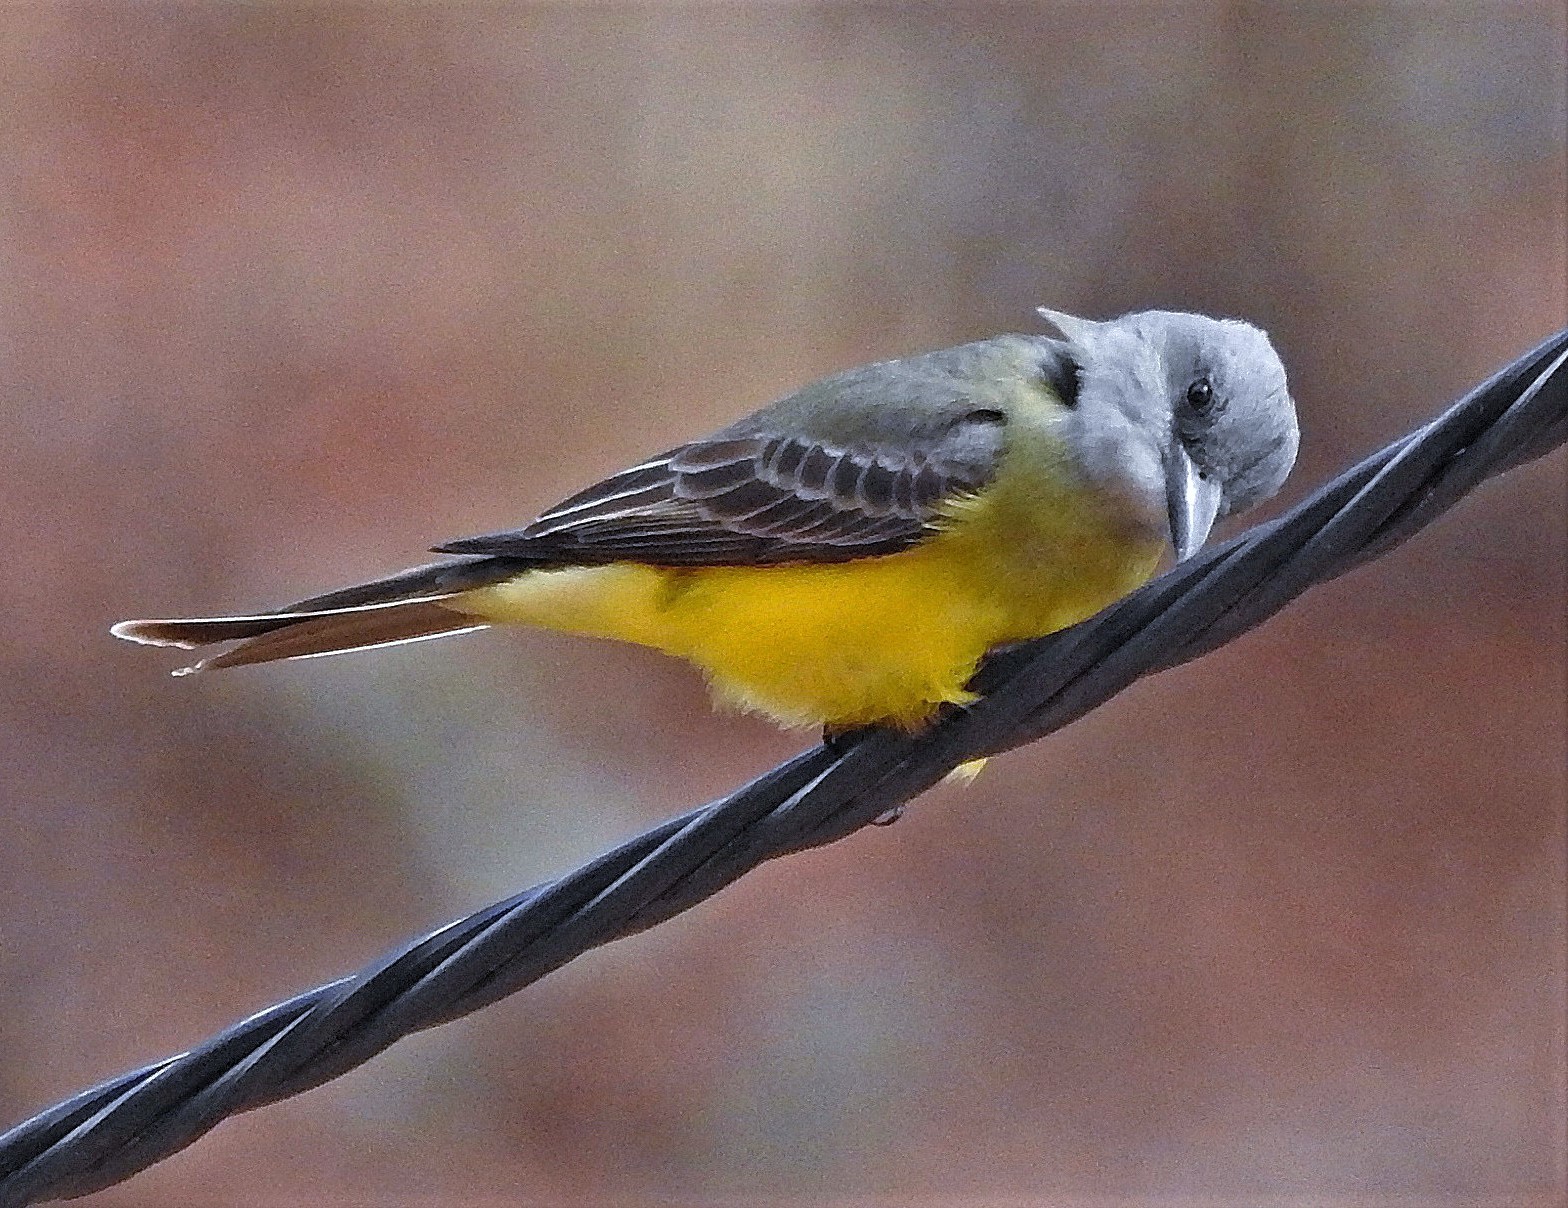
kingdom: Animalia
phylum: Chordata
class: Aves
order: Passeriformes
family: Tyrannidae
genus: Tyrannus
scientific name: Tyrannus melancholicus
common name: Tropical kingbird
